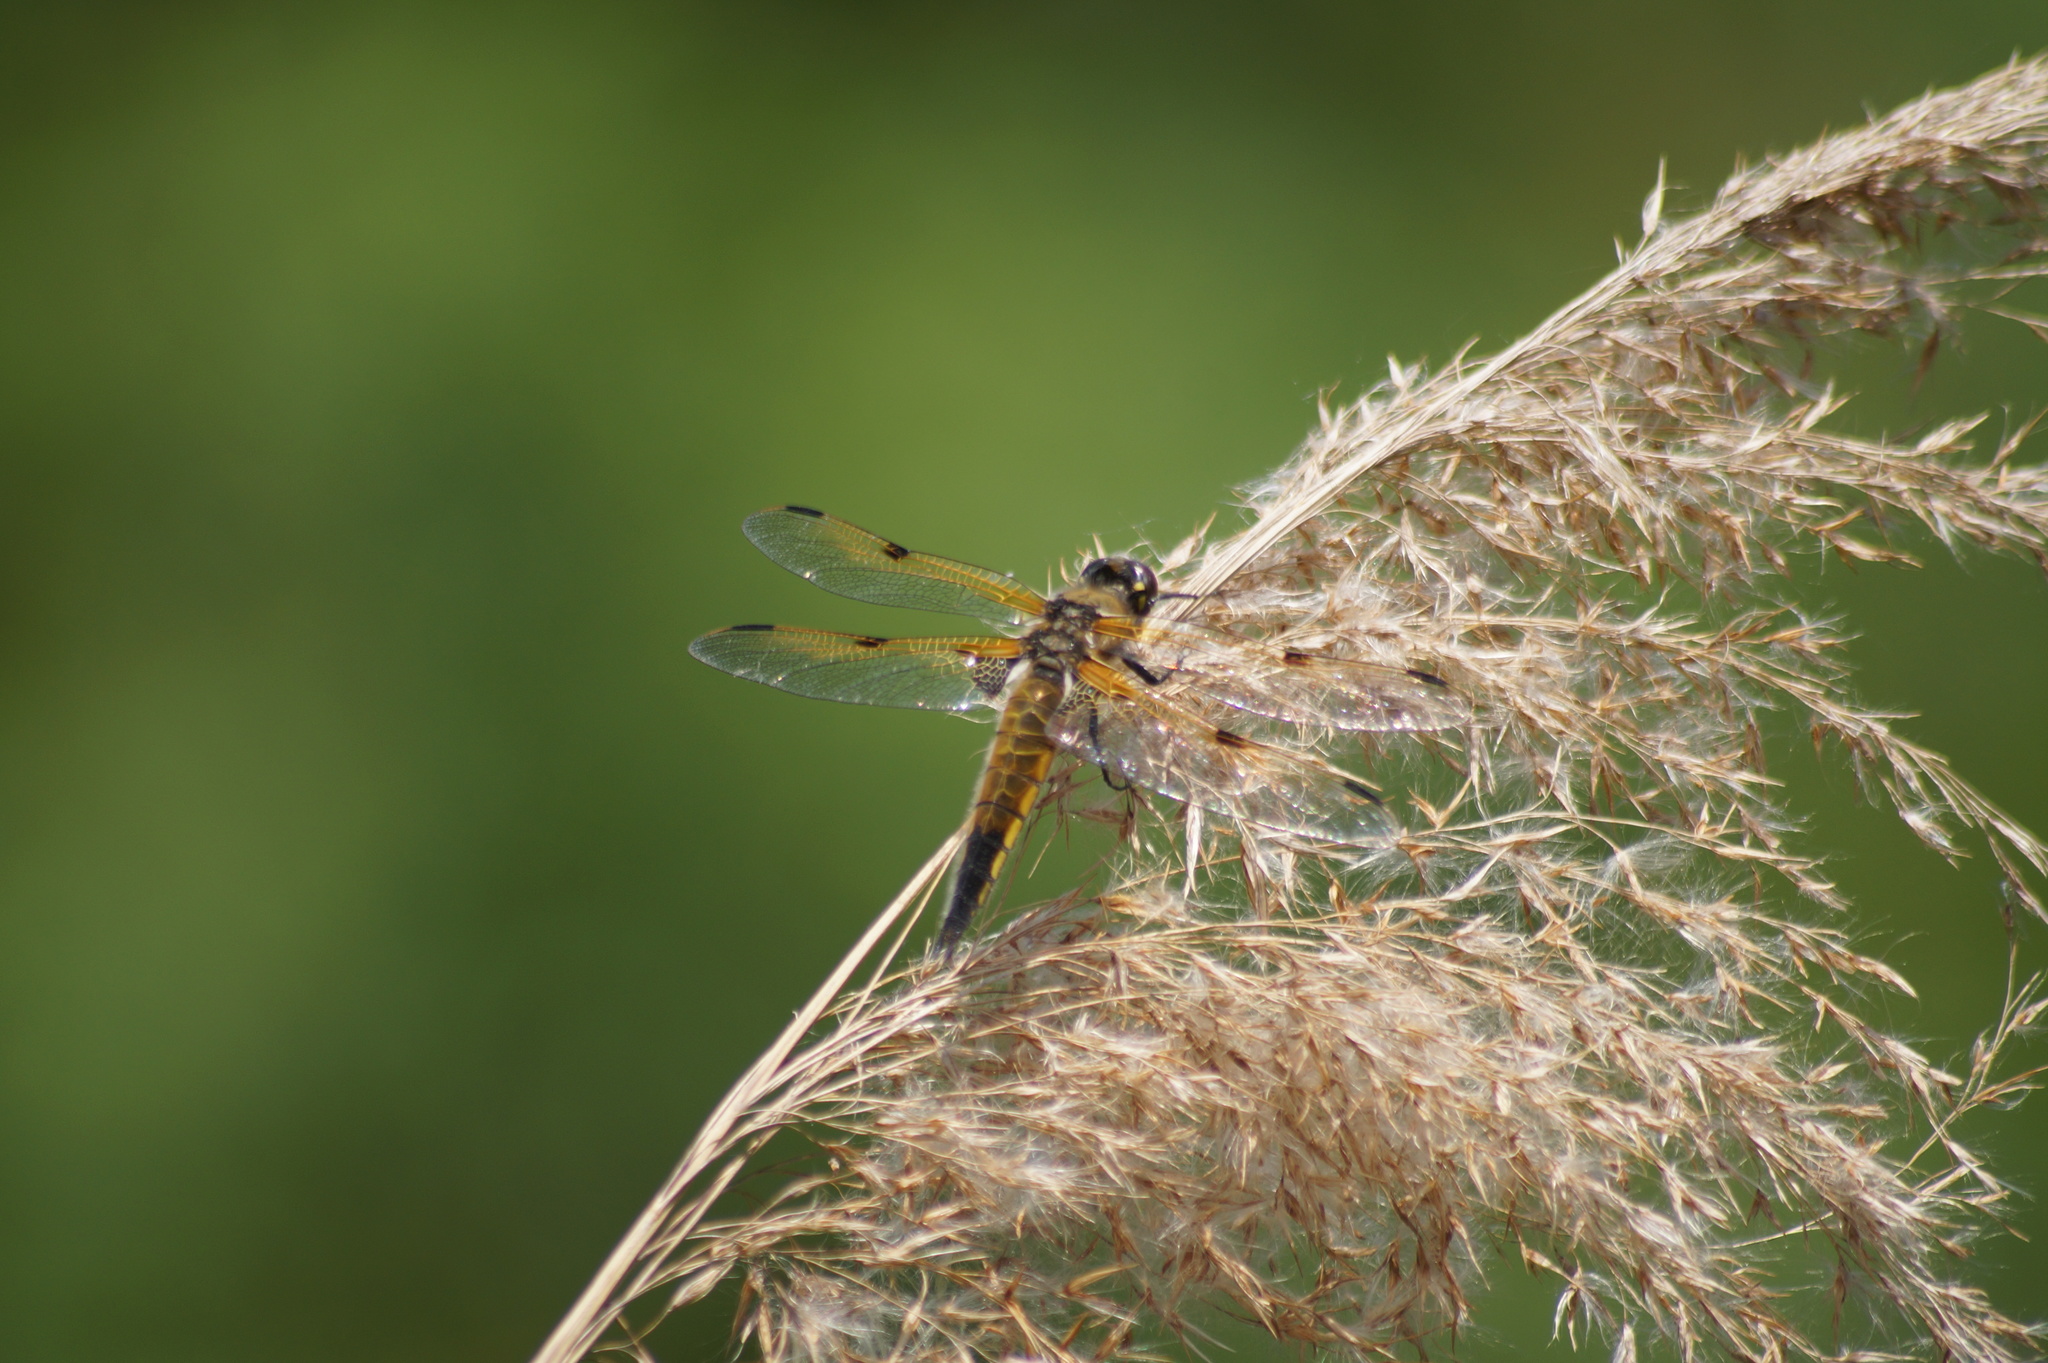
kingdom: Animalia
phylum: Arthropoda
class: Insecta
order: Odonata
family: Libellulidae
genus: Libellula
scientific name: Libellula quadrimaculata
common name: Four-spotted chaser
